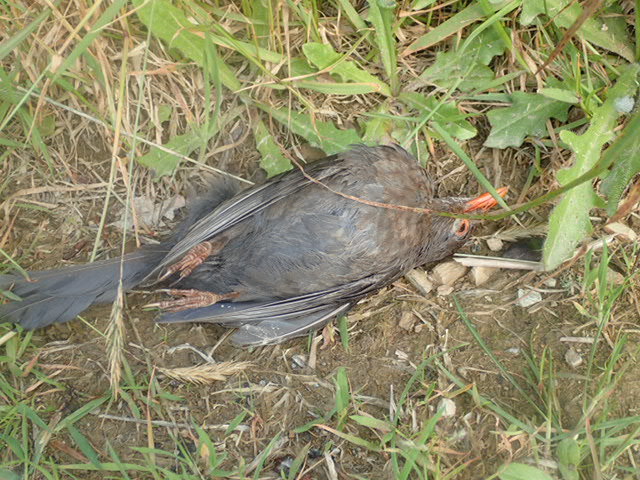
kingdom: Animalia
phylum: Chordata
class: Aves
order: Passeriformes
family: Turdidae
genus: Turdus
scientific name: Turdus merula
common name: Common blackbird
